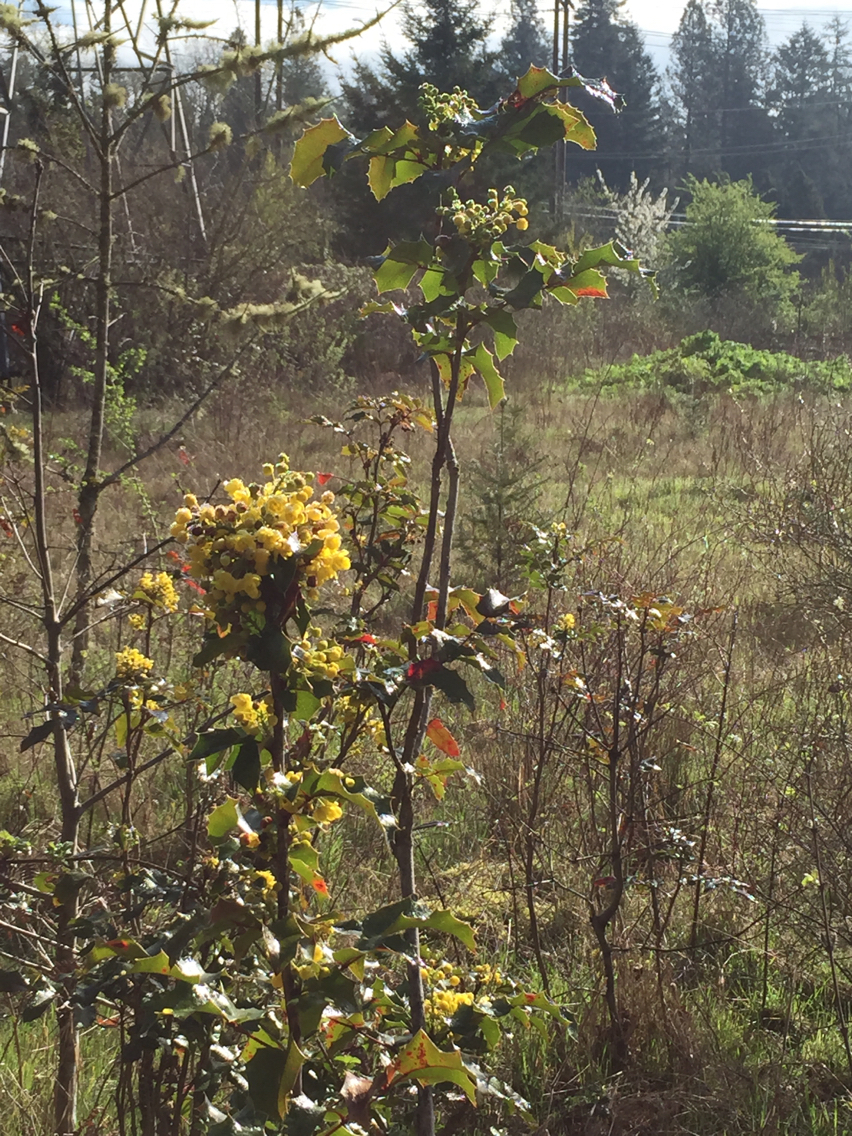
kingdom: Plantae
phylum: Tracheophyta
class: Magnoliopsida
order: Ranunculales
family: Berberidaceae
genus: Mahonia
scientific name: Mahonia aquifolium
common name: Oregon-grape
